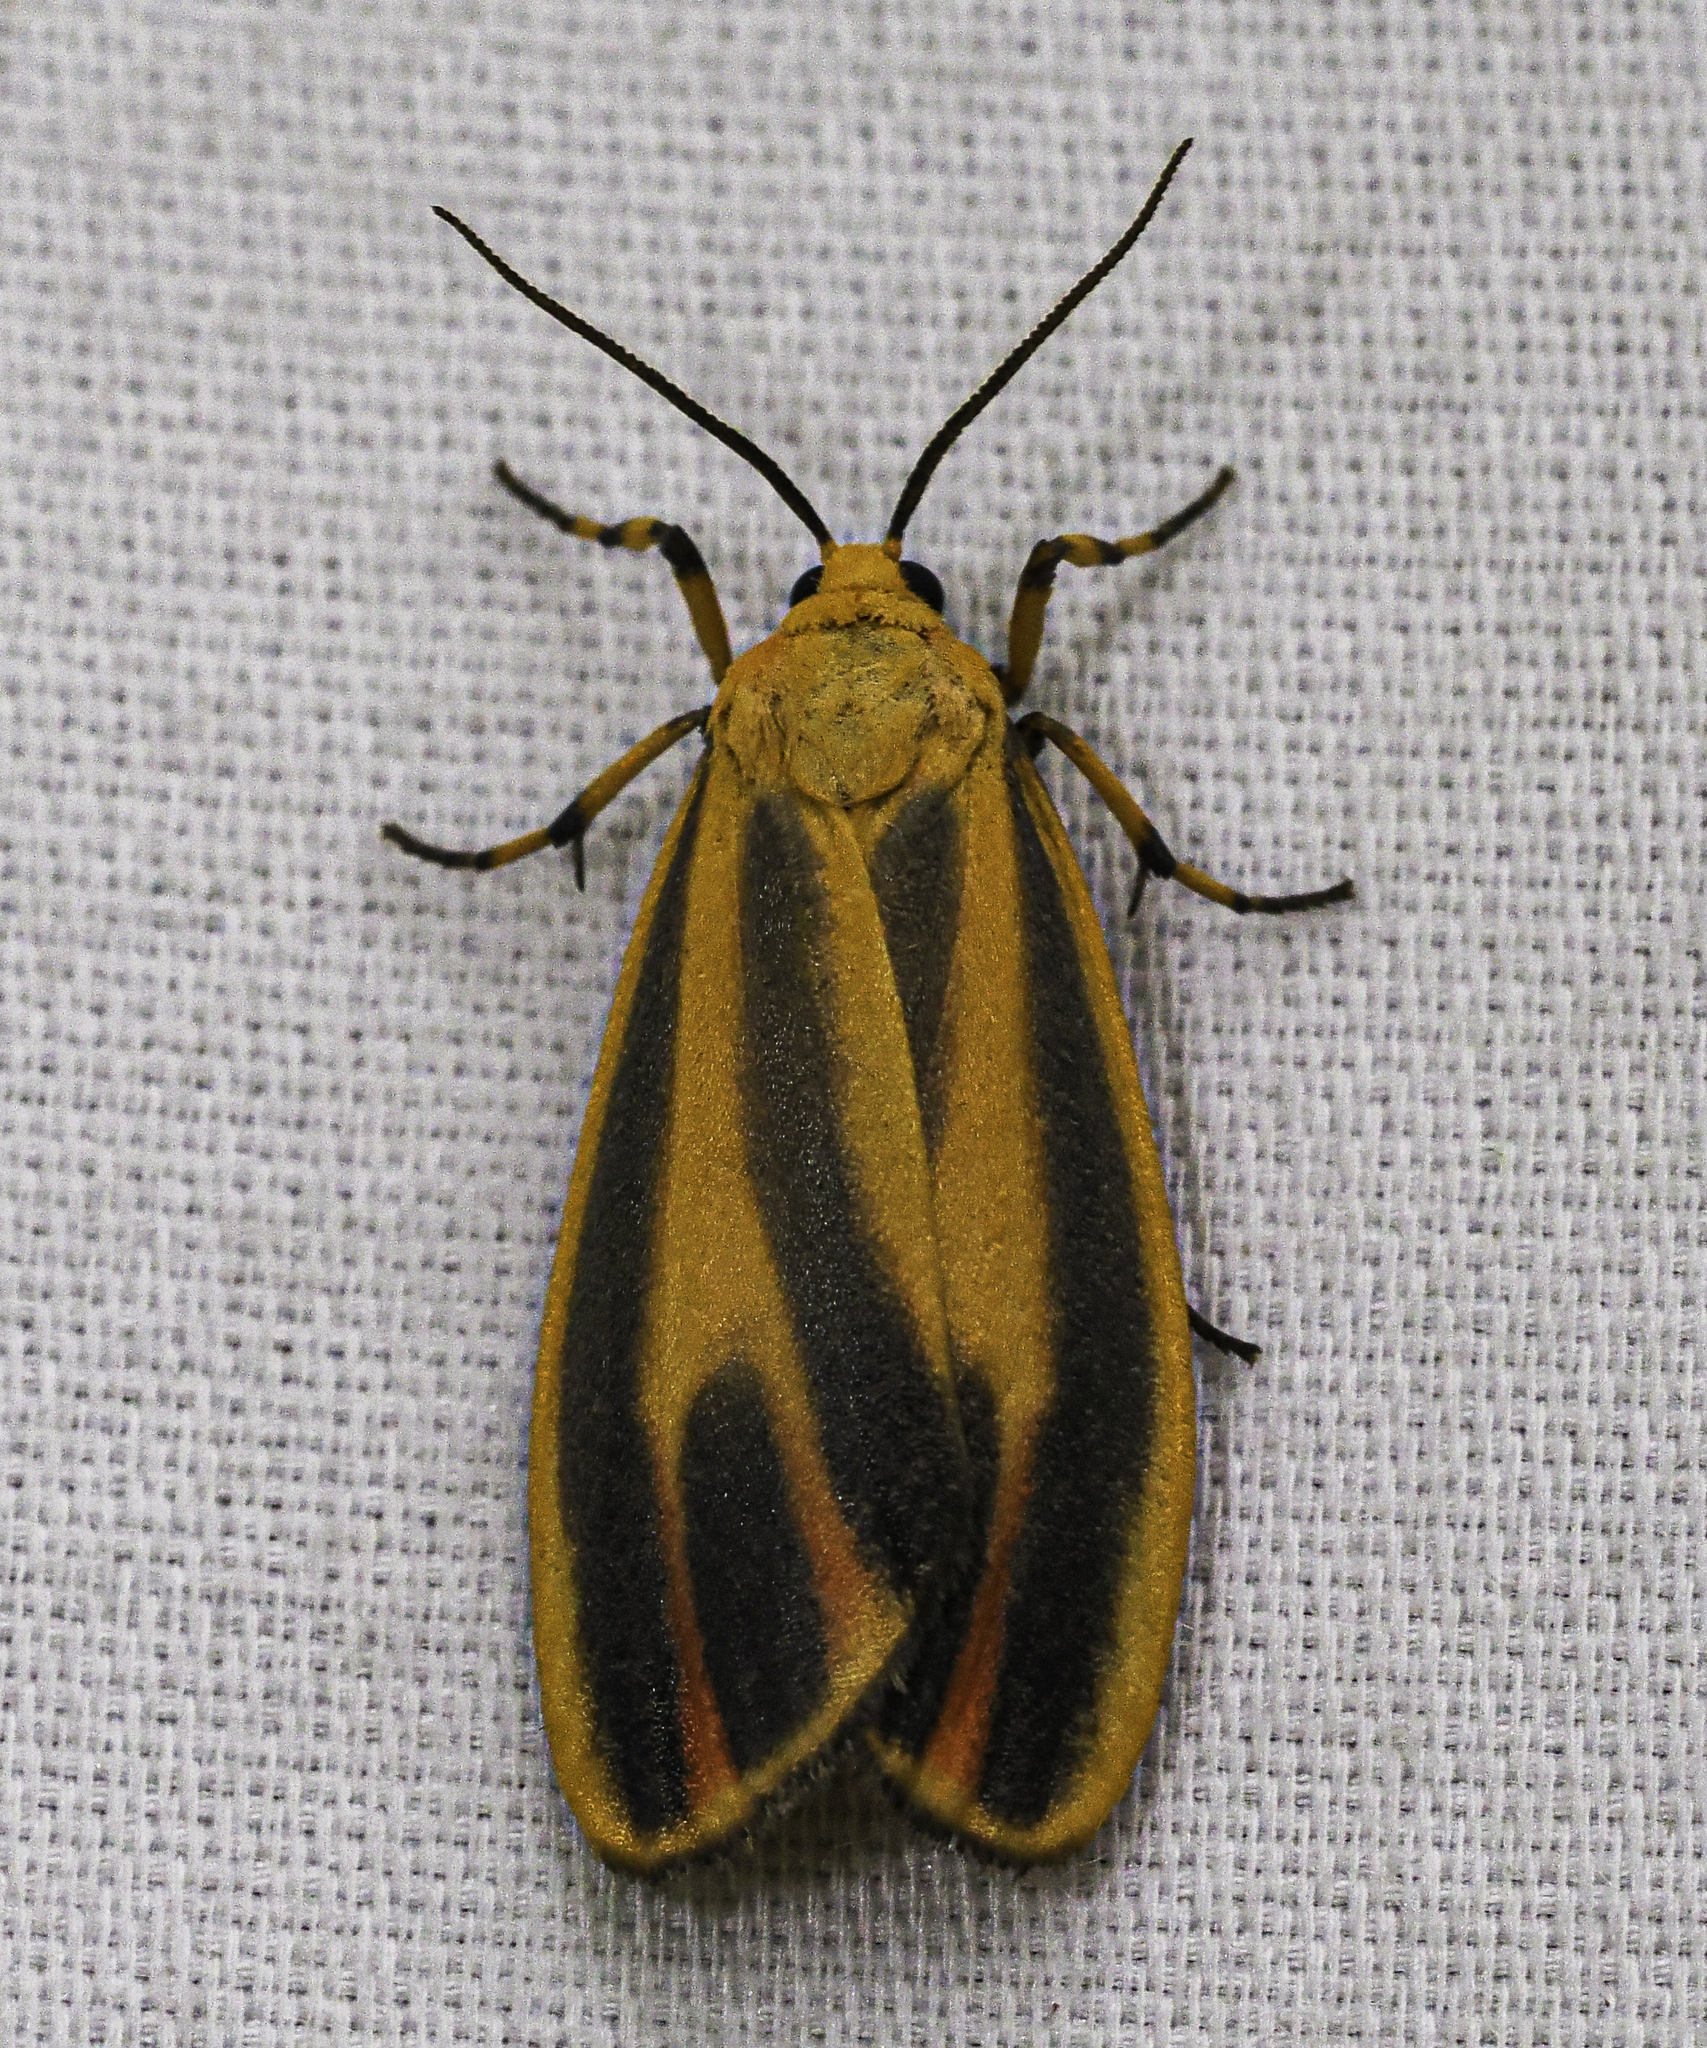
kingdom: Animalia
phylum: Arthropoda
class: Insecta
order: Lepidoptera
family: Erebidae
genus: Hypoprepia
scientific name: Hypoprepia fucosa
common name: Painted lichen moth
